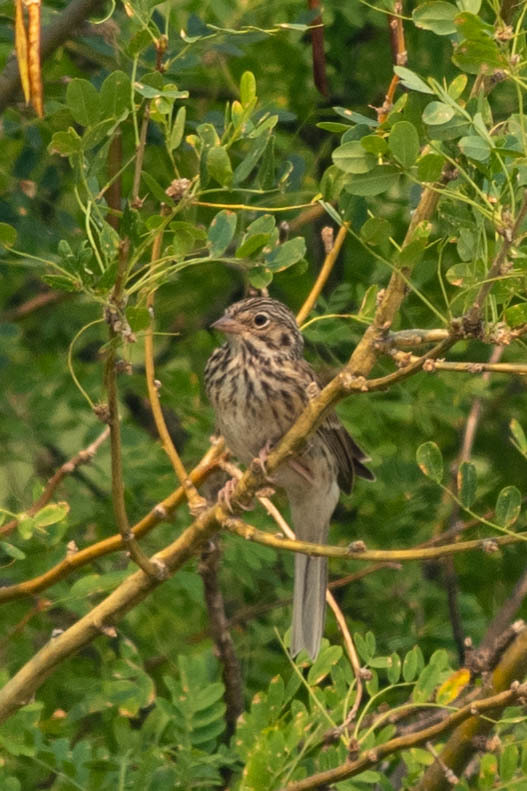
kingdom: Animalia
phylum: Chordata
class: Aves
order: Passeriformes
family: Passerellidae
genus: Pooecetes
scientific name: Pooecetes gramineus
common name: Vesper sparrow
